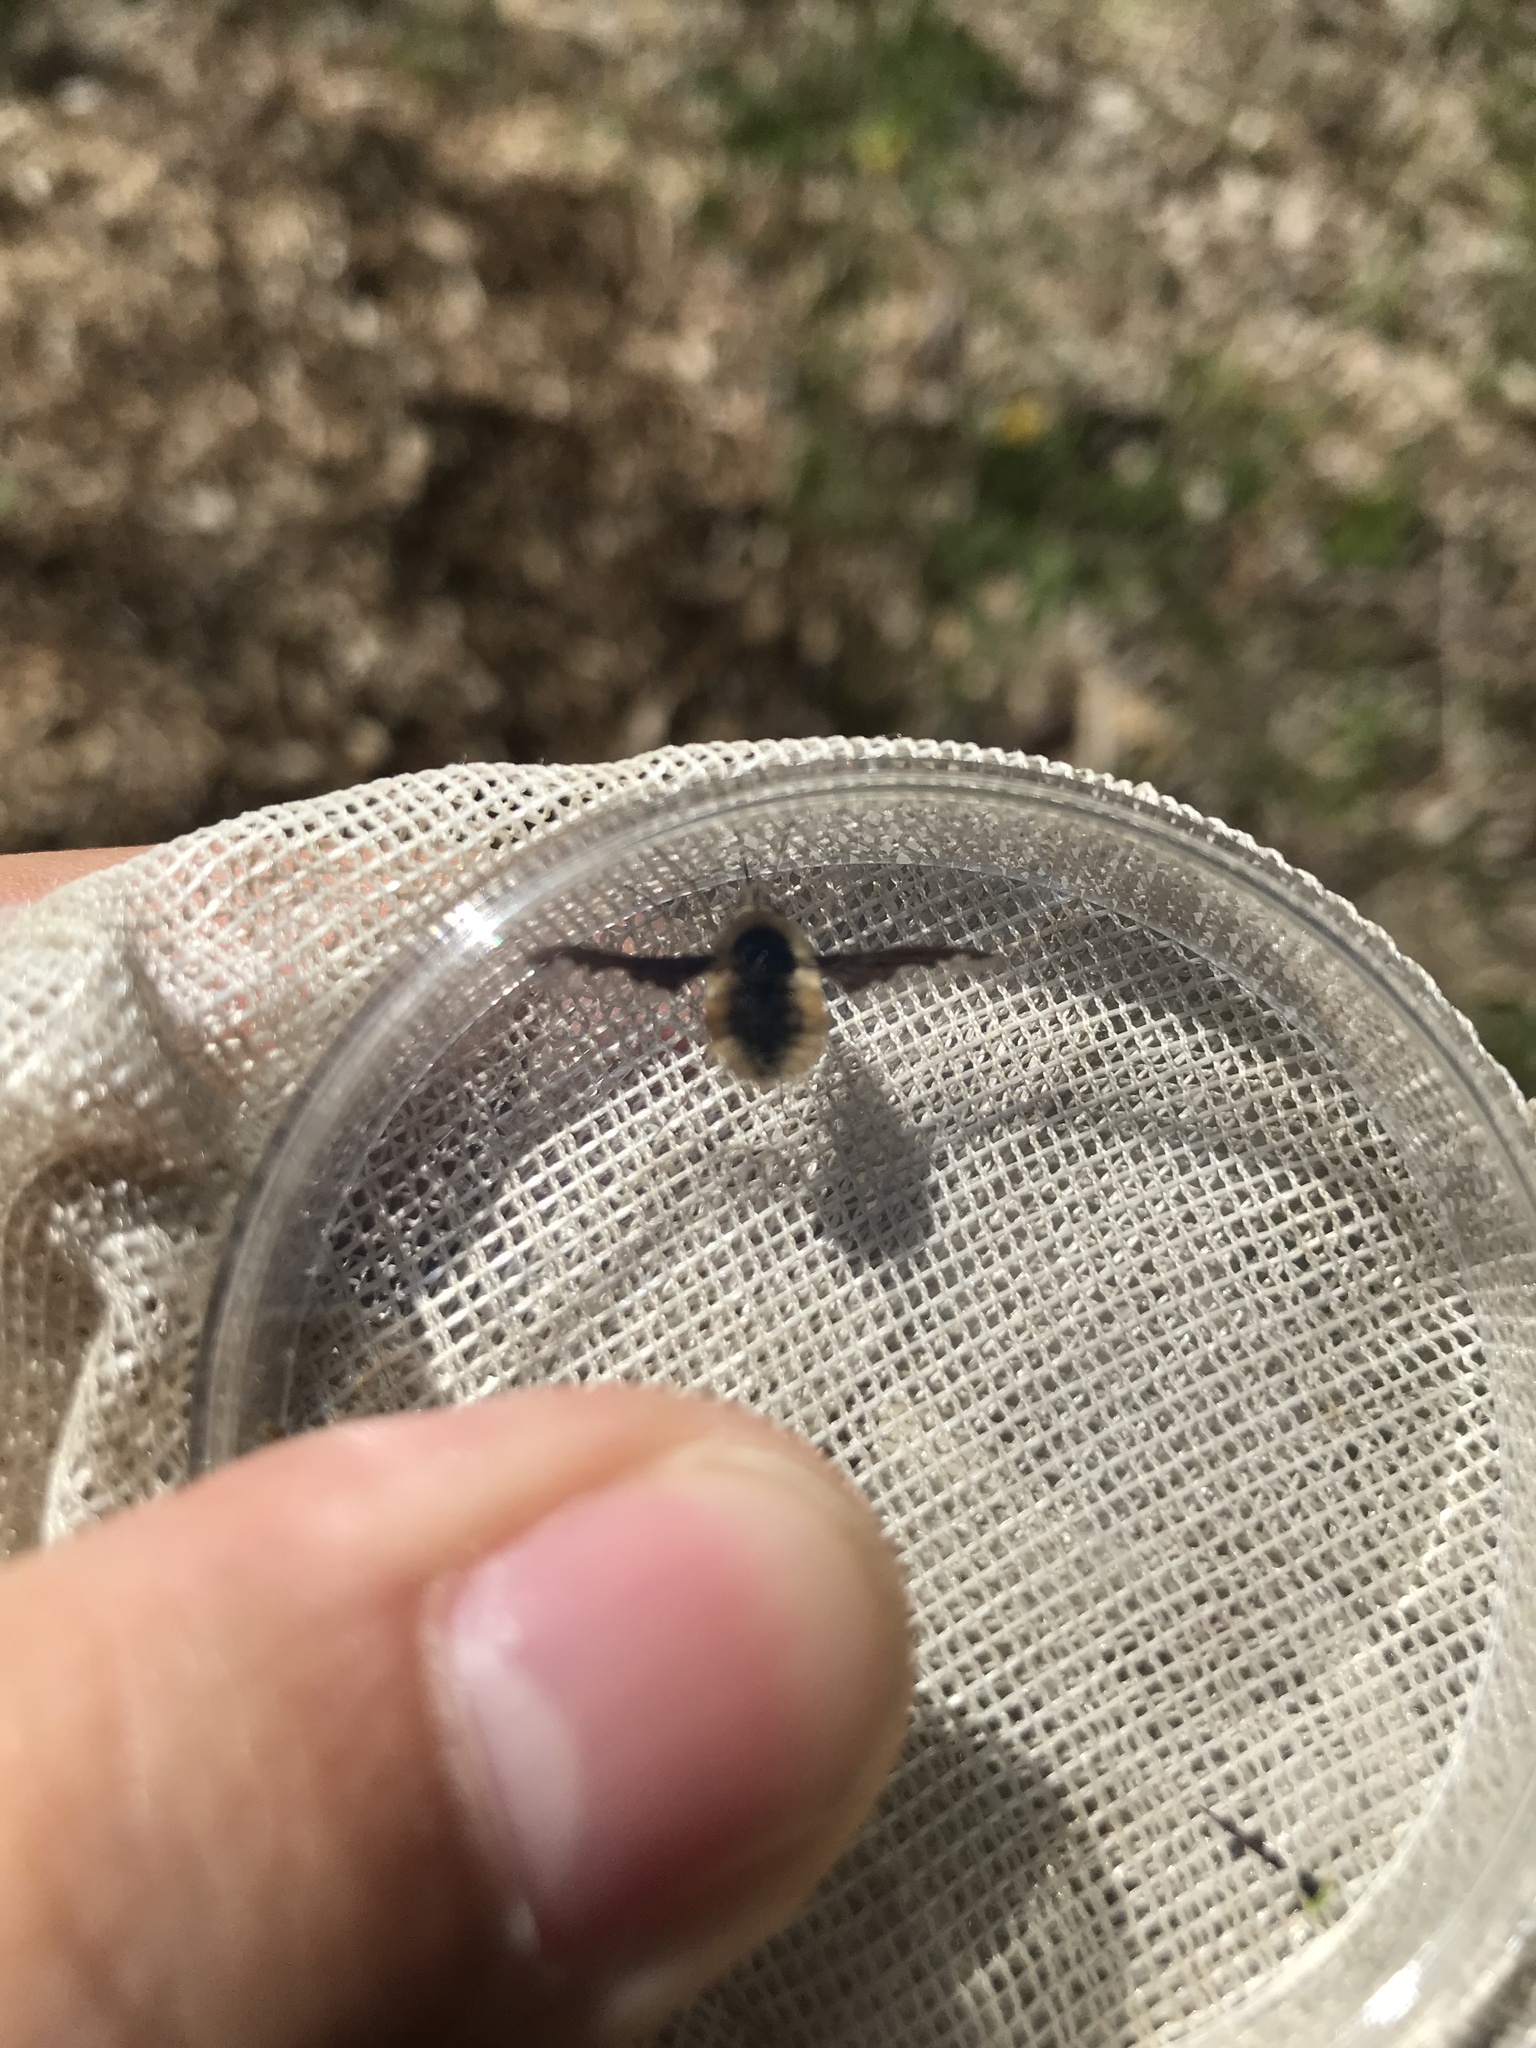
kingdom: Animalia
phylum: Arthropoda
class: Insecta
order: Diptera
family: Bombyliidae
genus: Bombylius
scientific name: Bombylius major
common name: Bee fly
